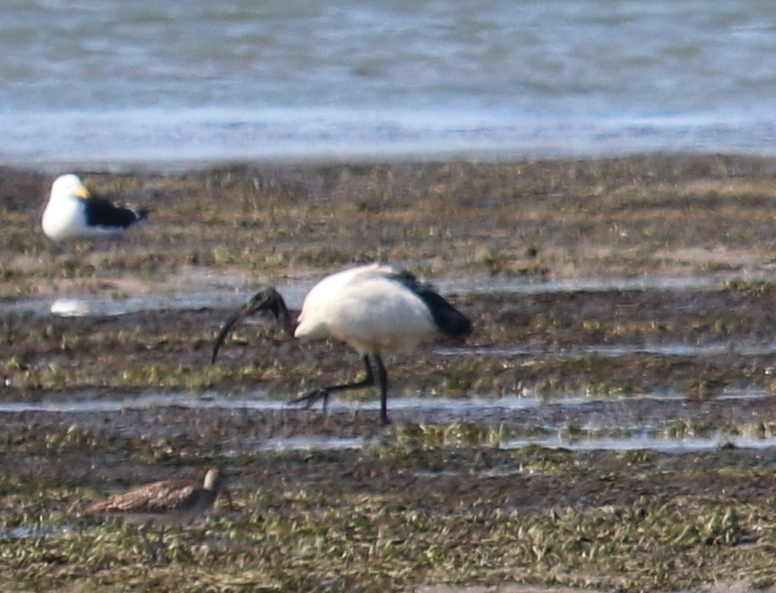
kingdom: Animalia
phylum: Chordata
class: Aves
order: Pelecaniformes
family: Threskiornithidae
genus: Threskiornis
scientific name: Threskiornis aethiopicus
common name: Sacred ibis
